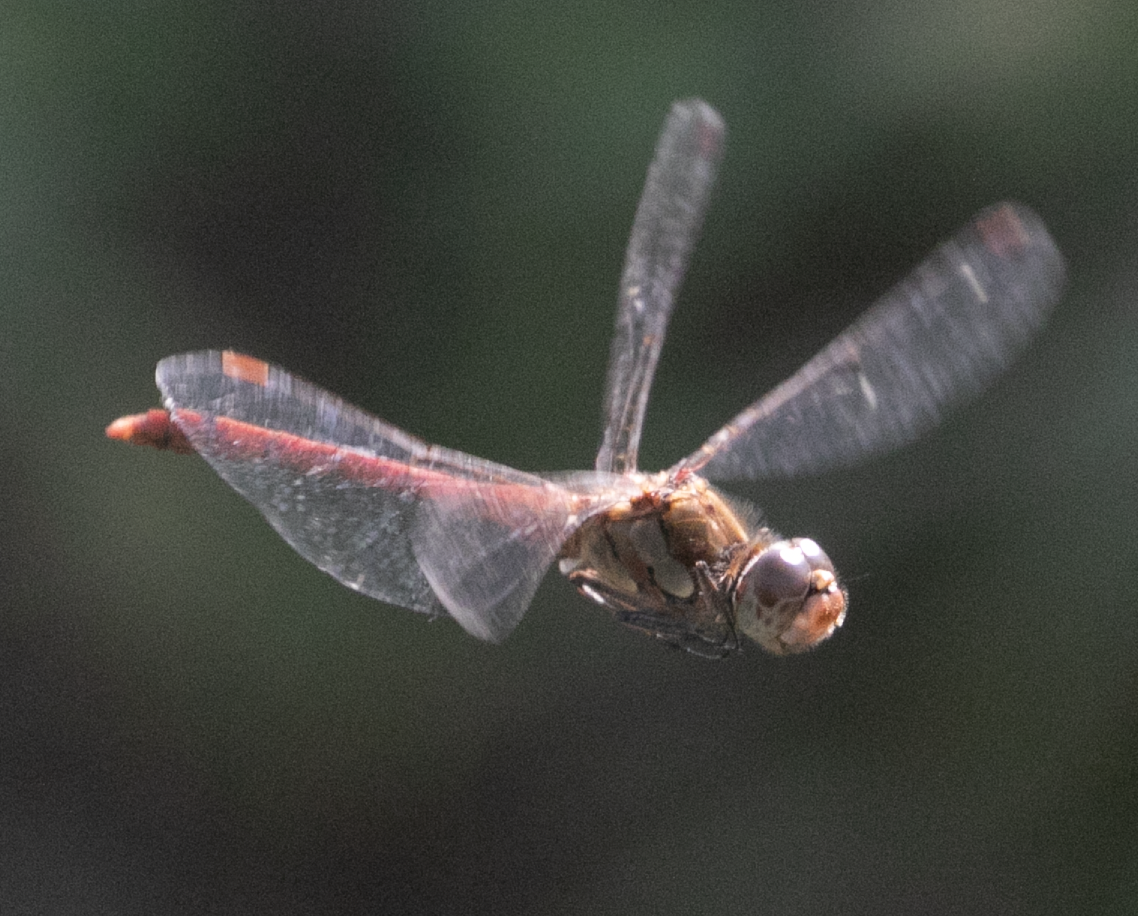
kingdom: Animalia
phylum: Arthropoda
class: Insecta
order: Odonata
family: Libellulidae
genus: Sympetrum
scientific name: Sympetrum striolatum
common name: Common darter
